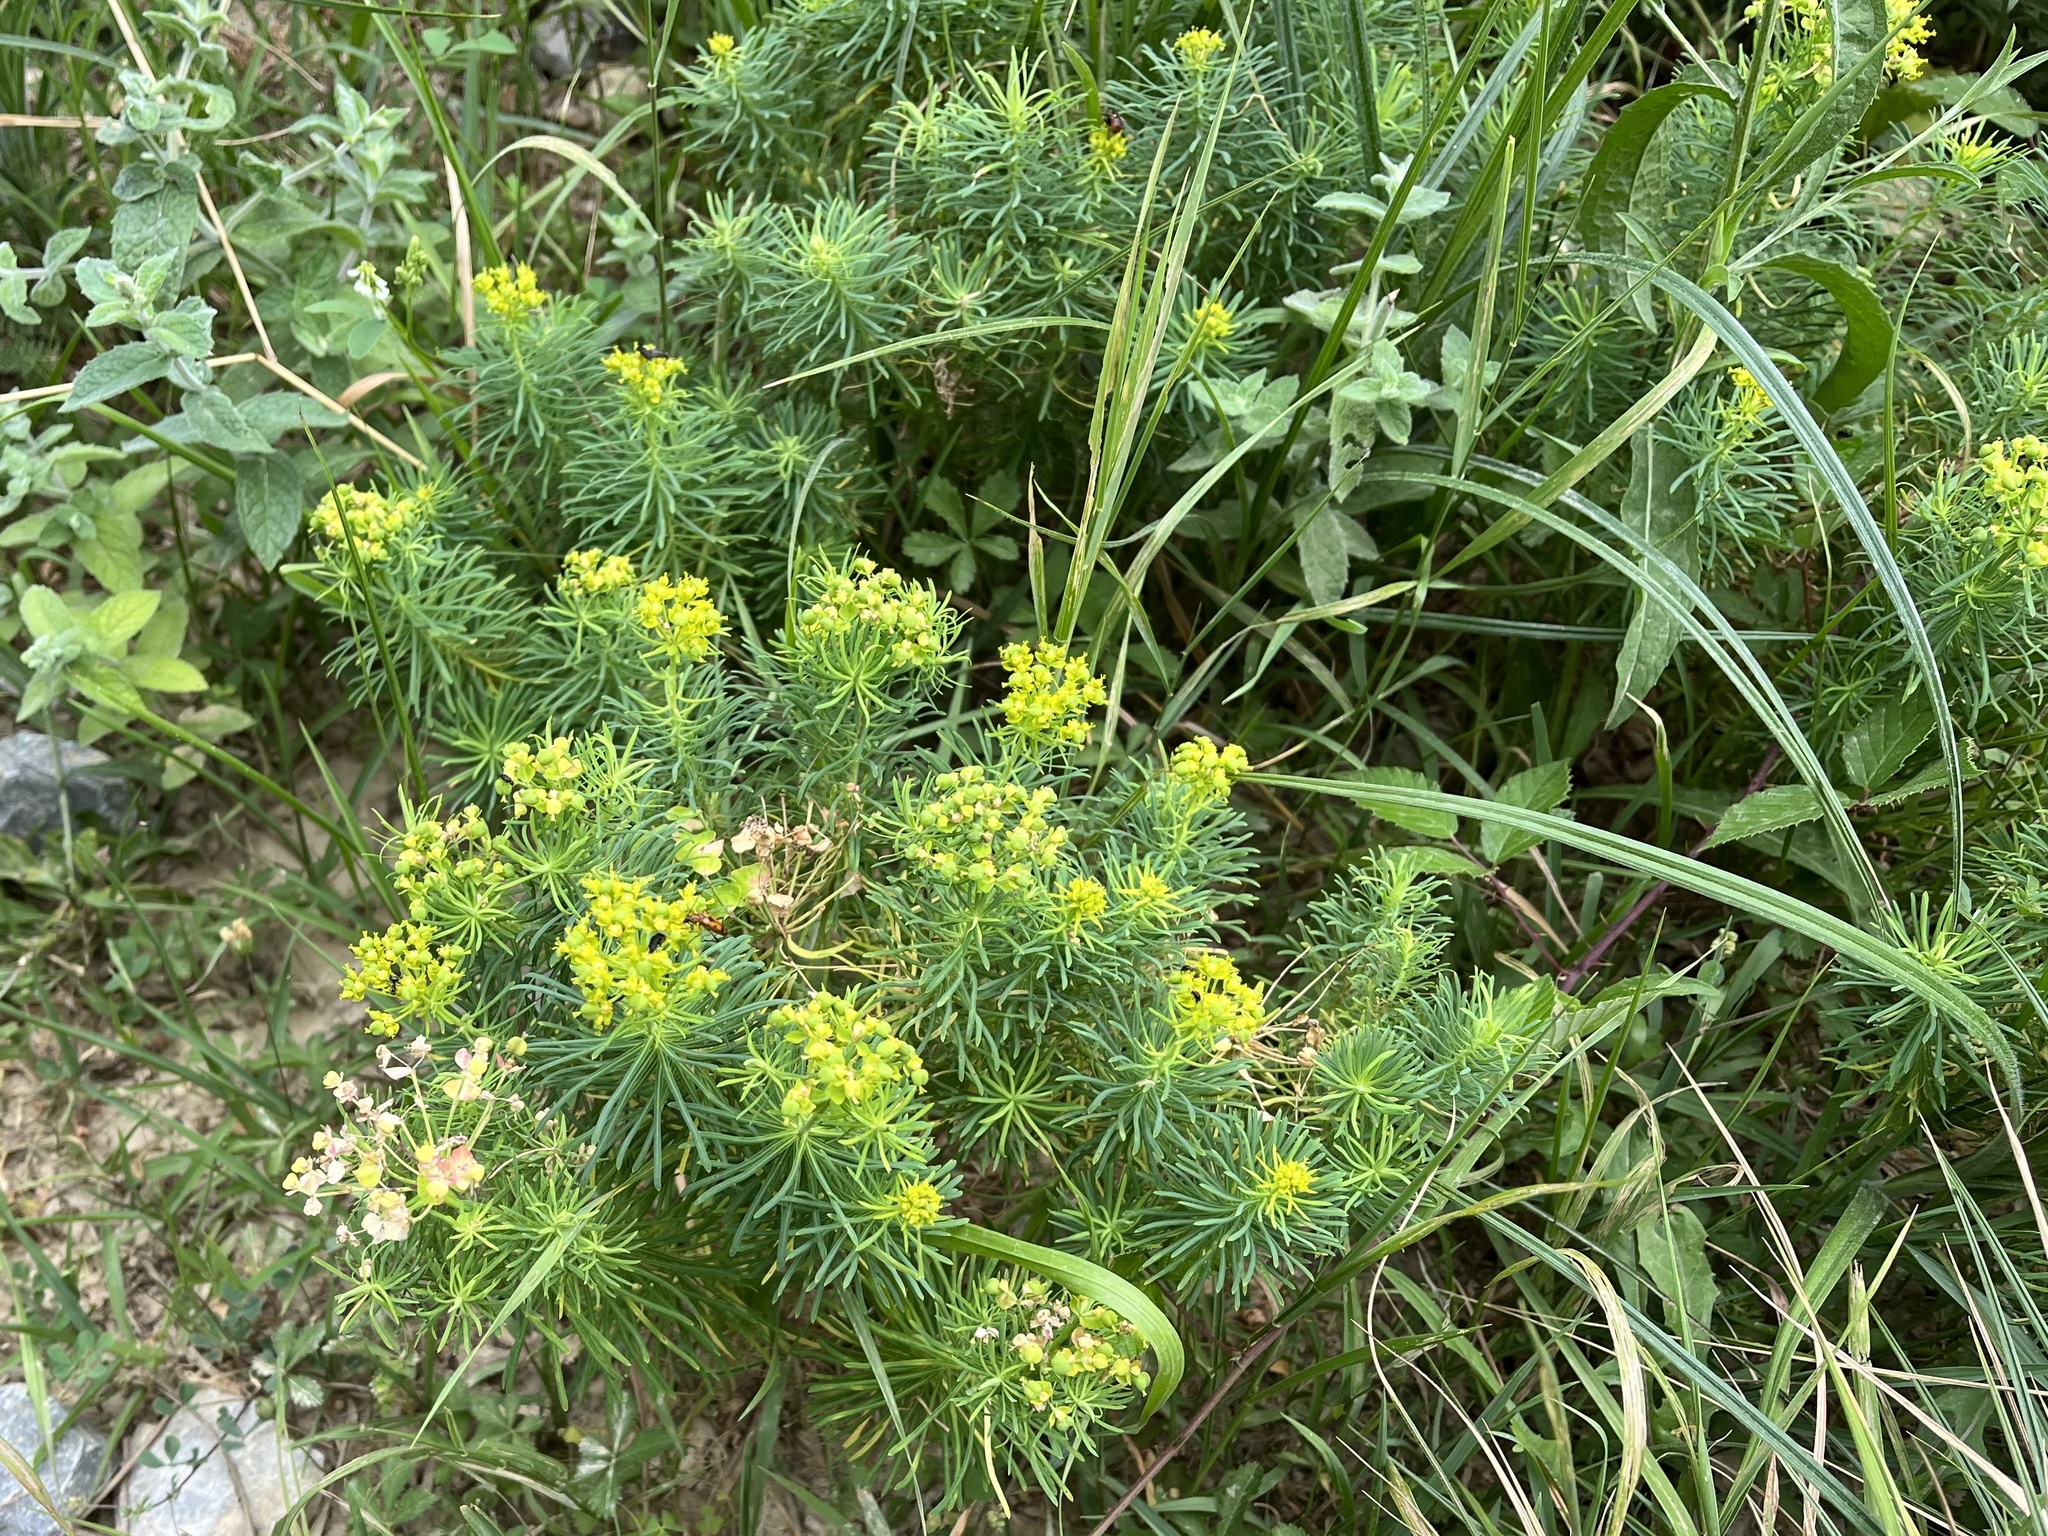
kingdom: Plantae
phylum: Tracheophyta
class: Magnoliopsida
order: Malpighiales
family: Euphorbiaceae
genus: Euphorbia
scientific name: Euphorbia cyparissias
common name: Cypress spurge
